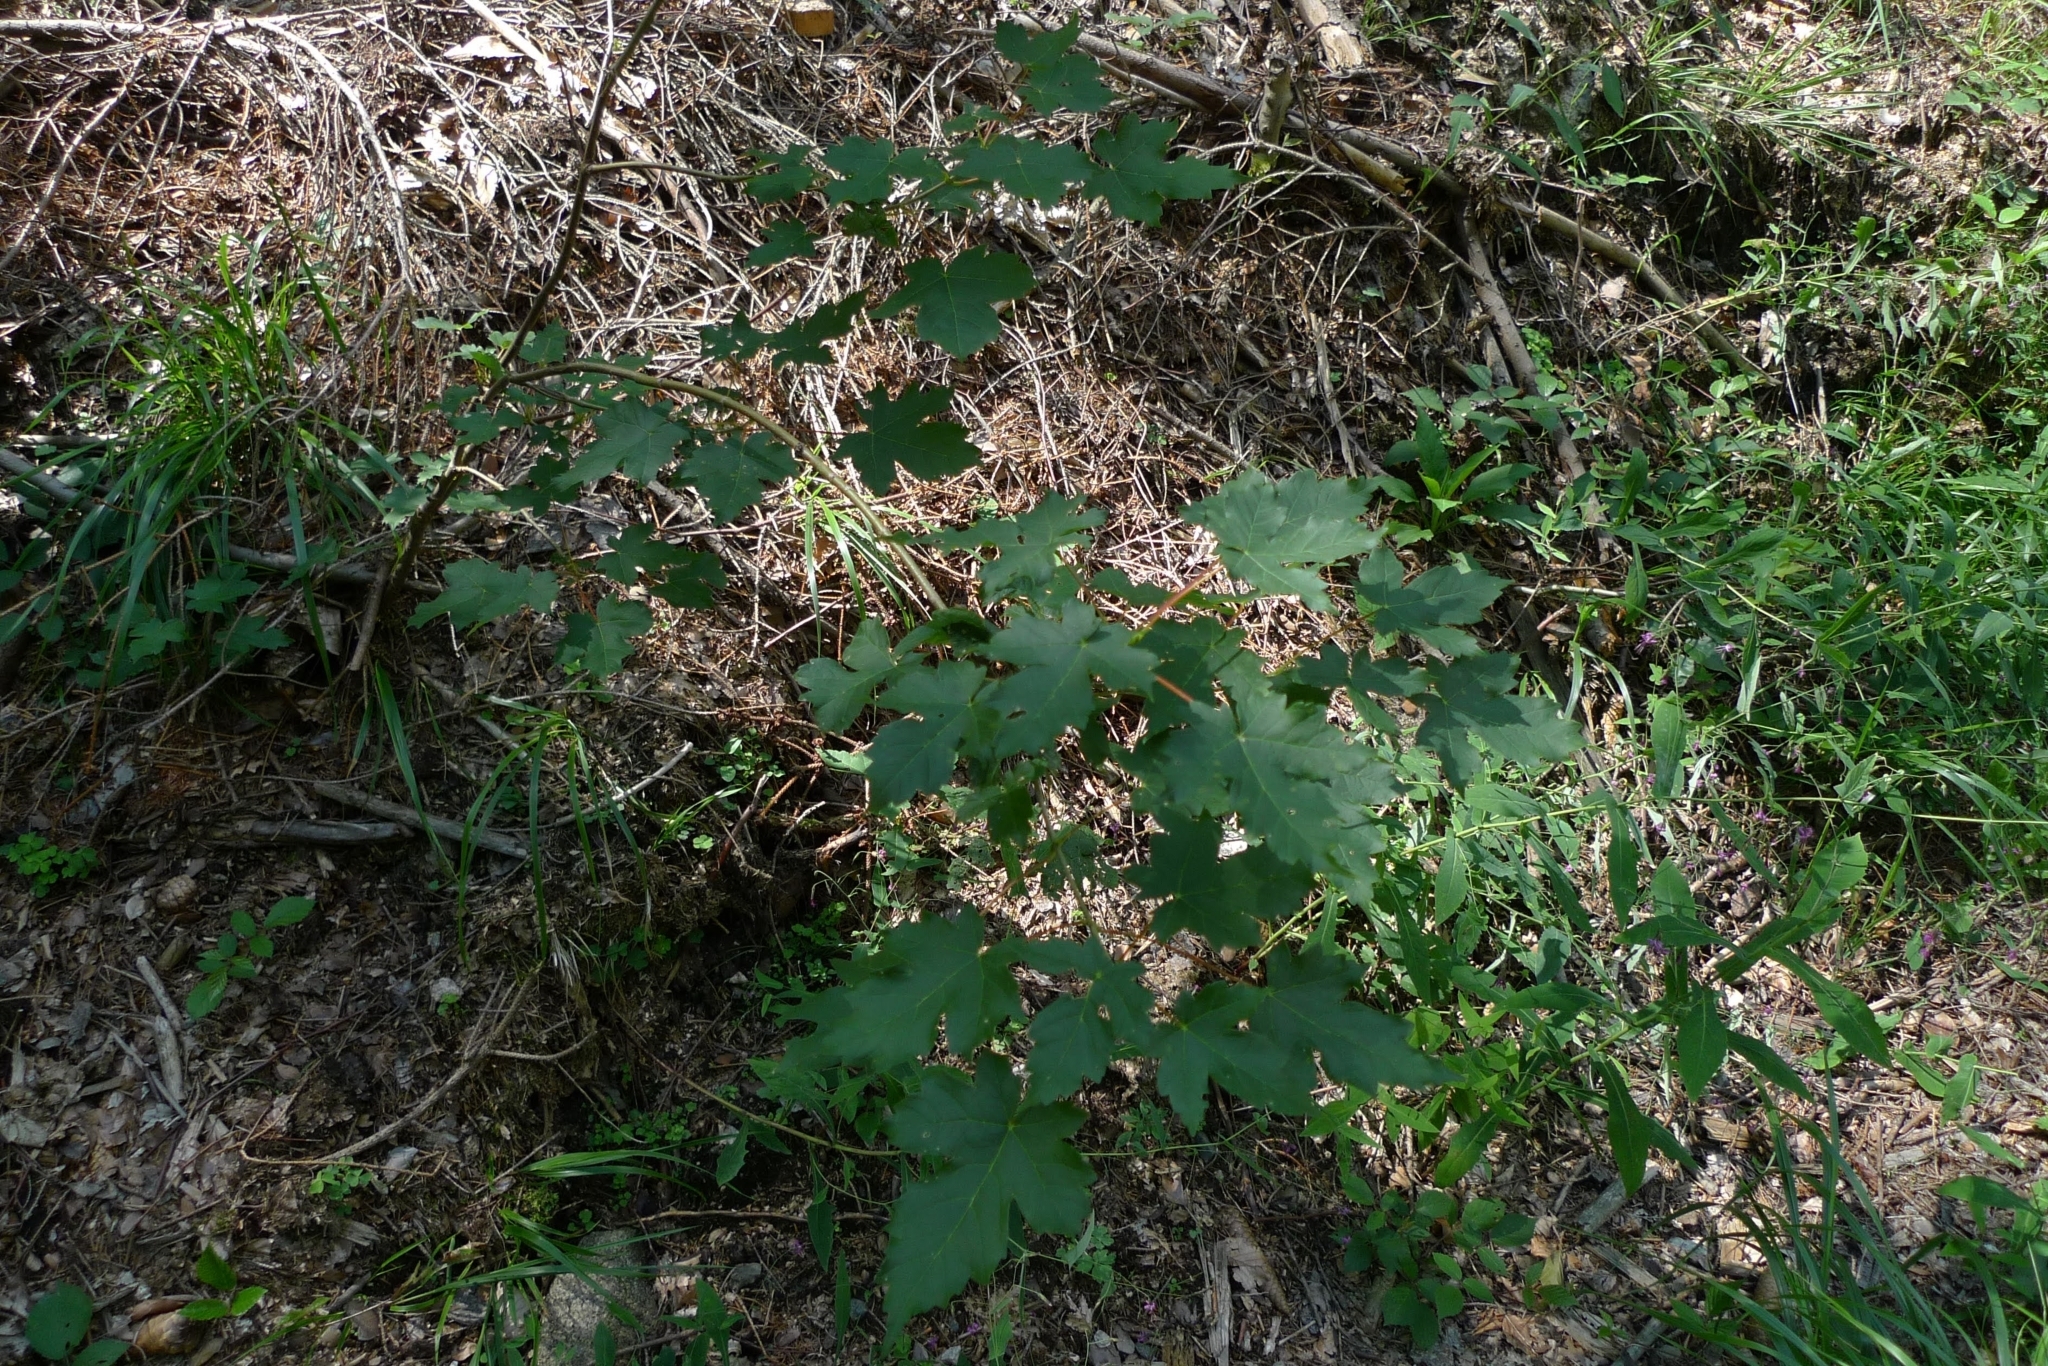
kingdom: Plantae
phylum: Tracheophyta
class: Magnoliopsida
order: Sapindales
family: Sapindaceae
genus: Acer
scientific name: Acer pseudoplatanus
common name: Sycamore
